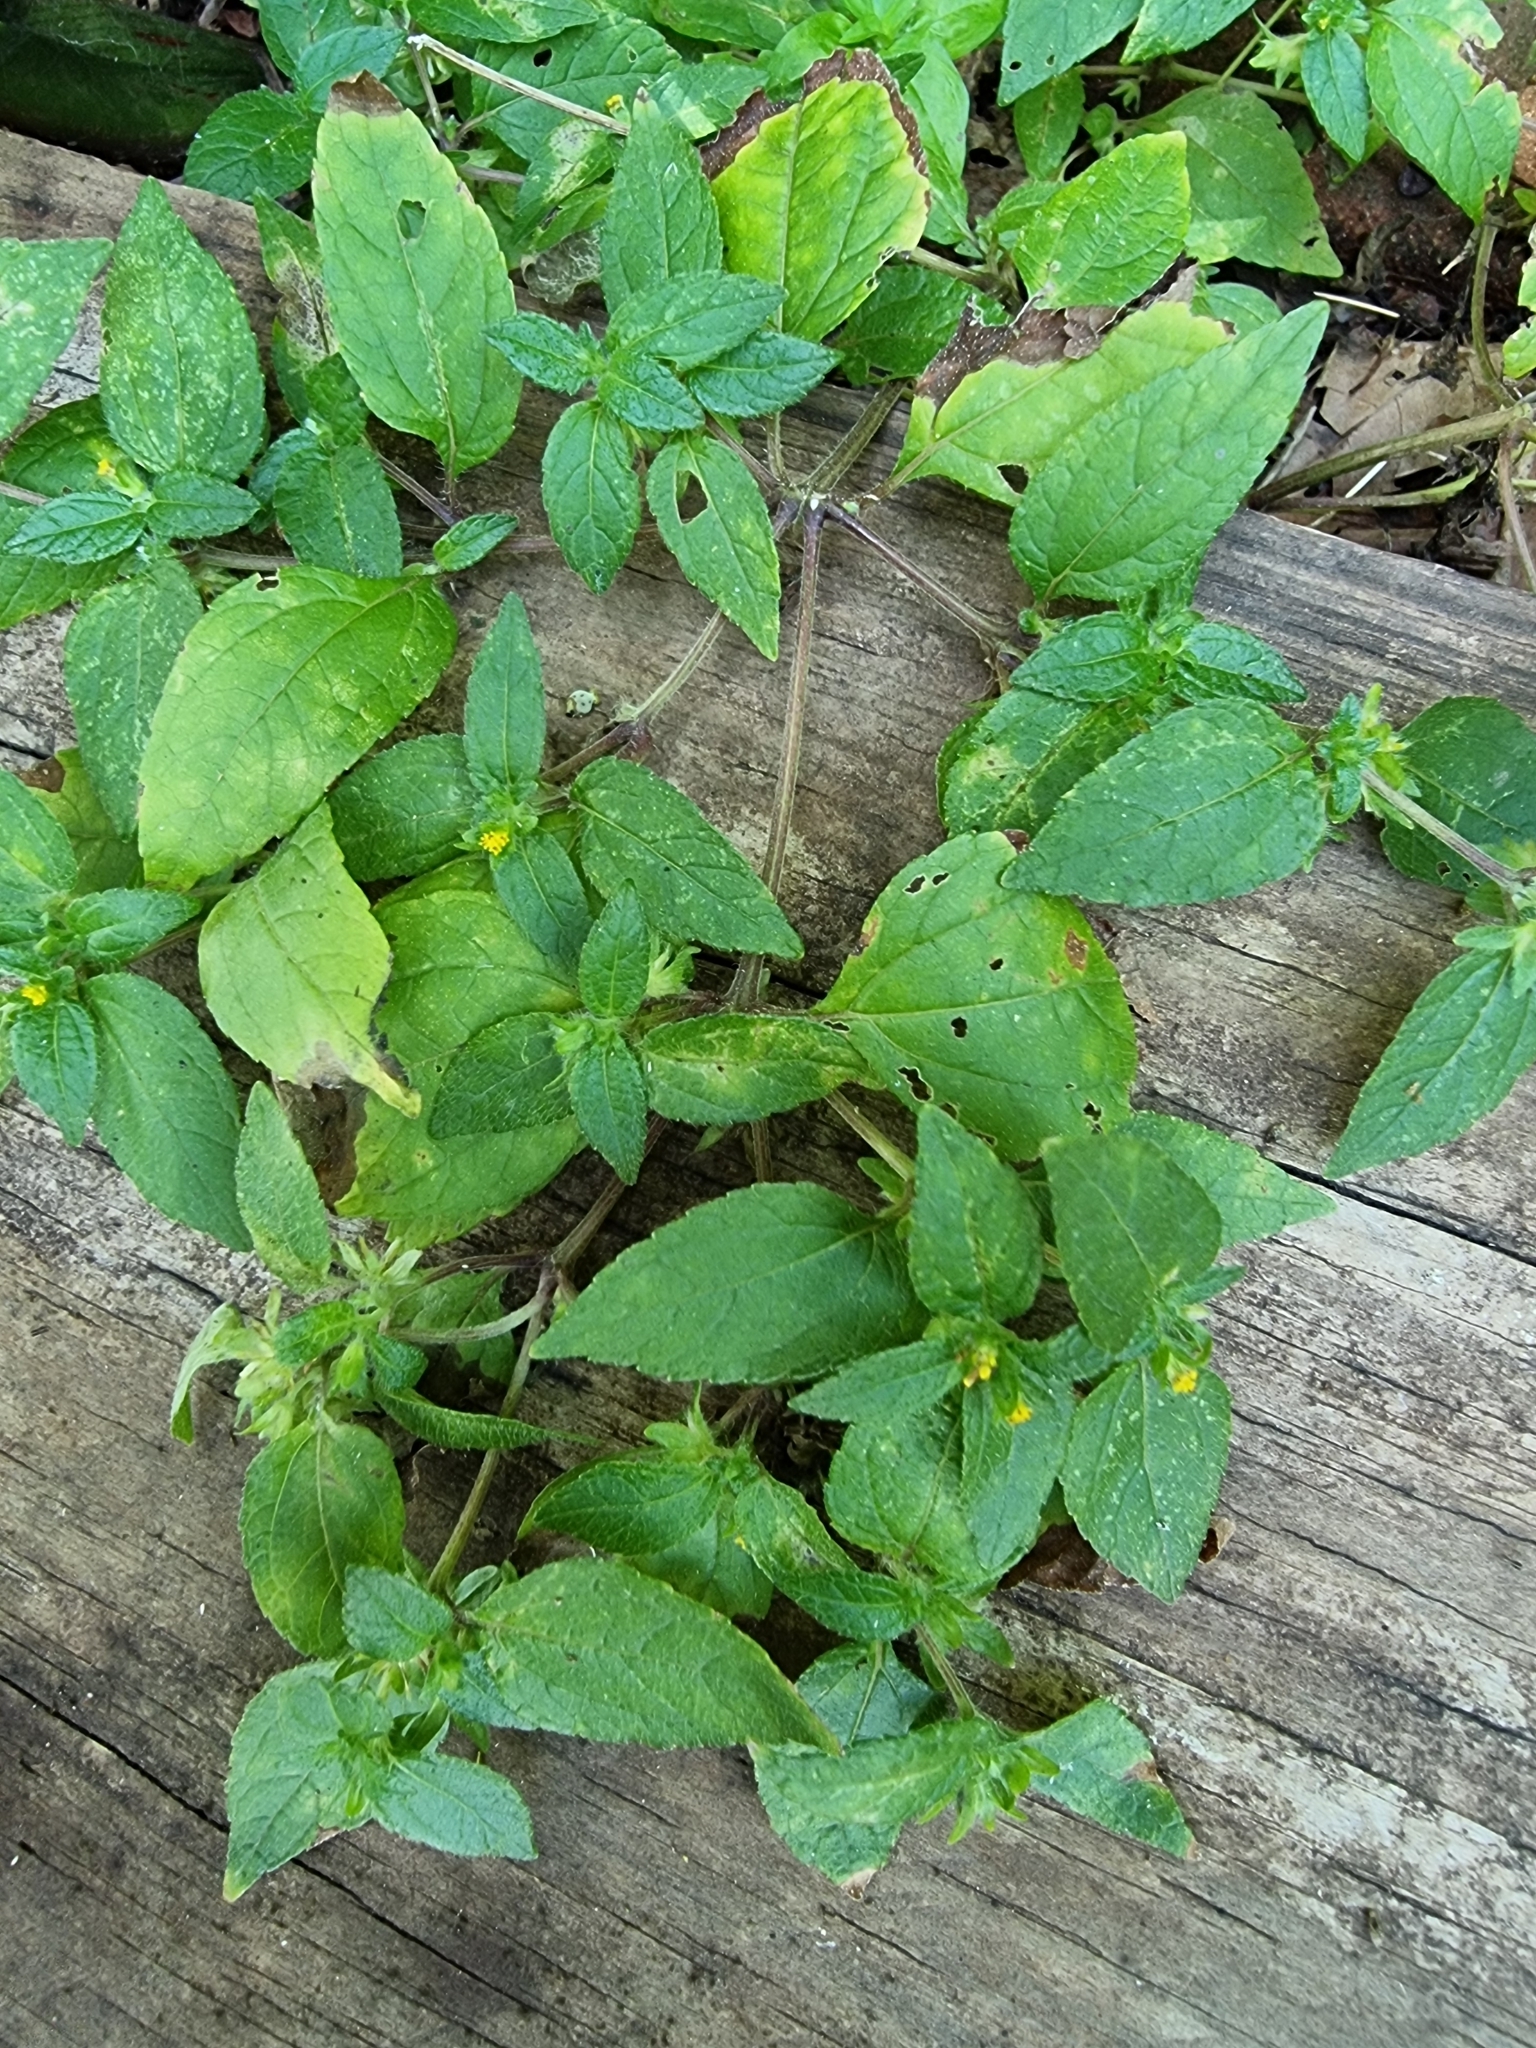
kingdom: Plantae
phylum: Tracheophyta
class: Magnoliopsida
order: Asterales
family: Asteraceae
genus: Synedrella
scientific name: Synedrella nodiflora
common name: Nodeweed
